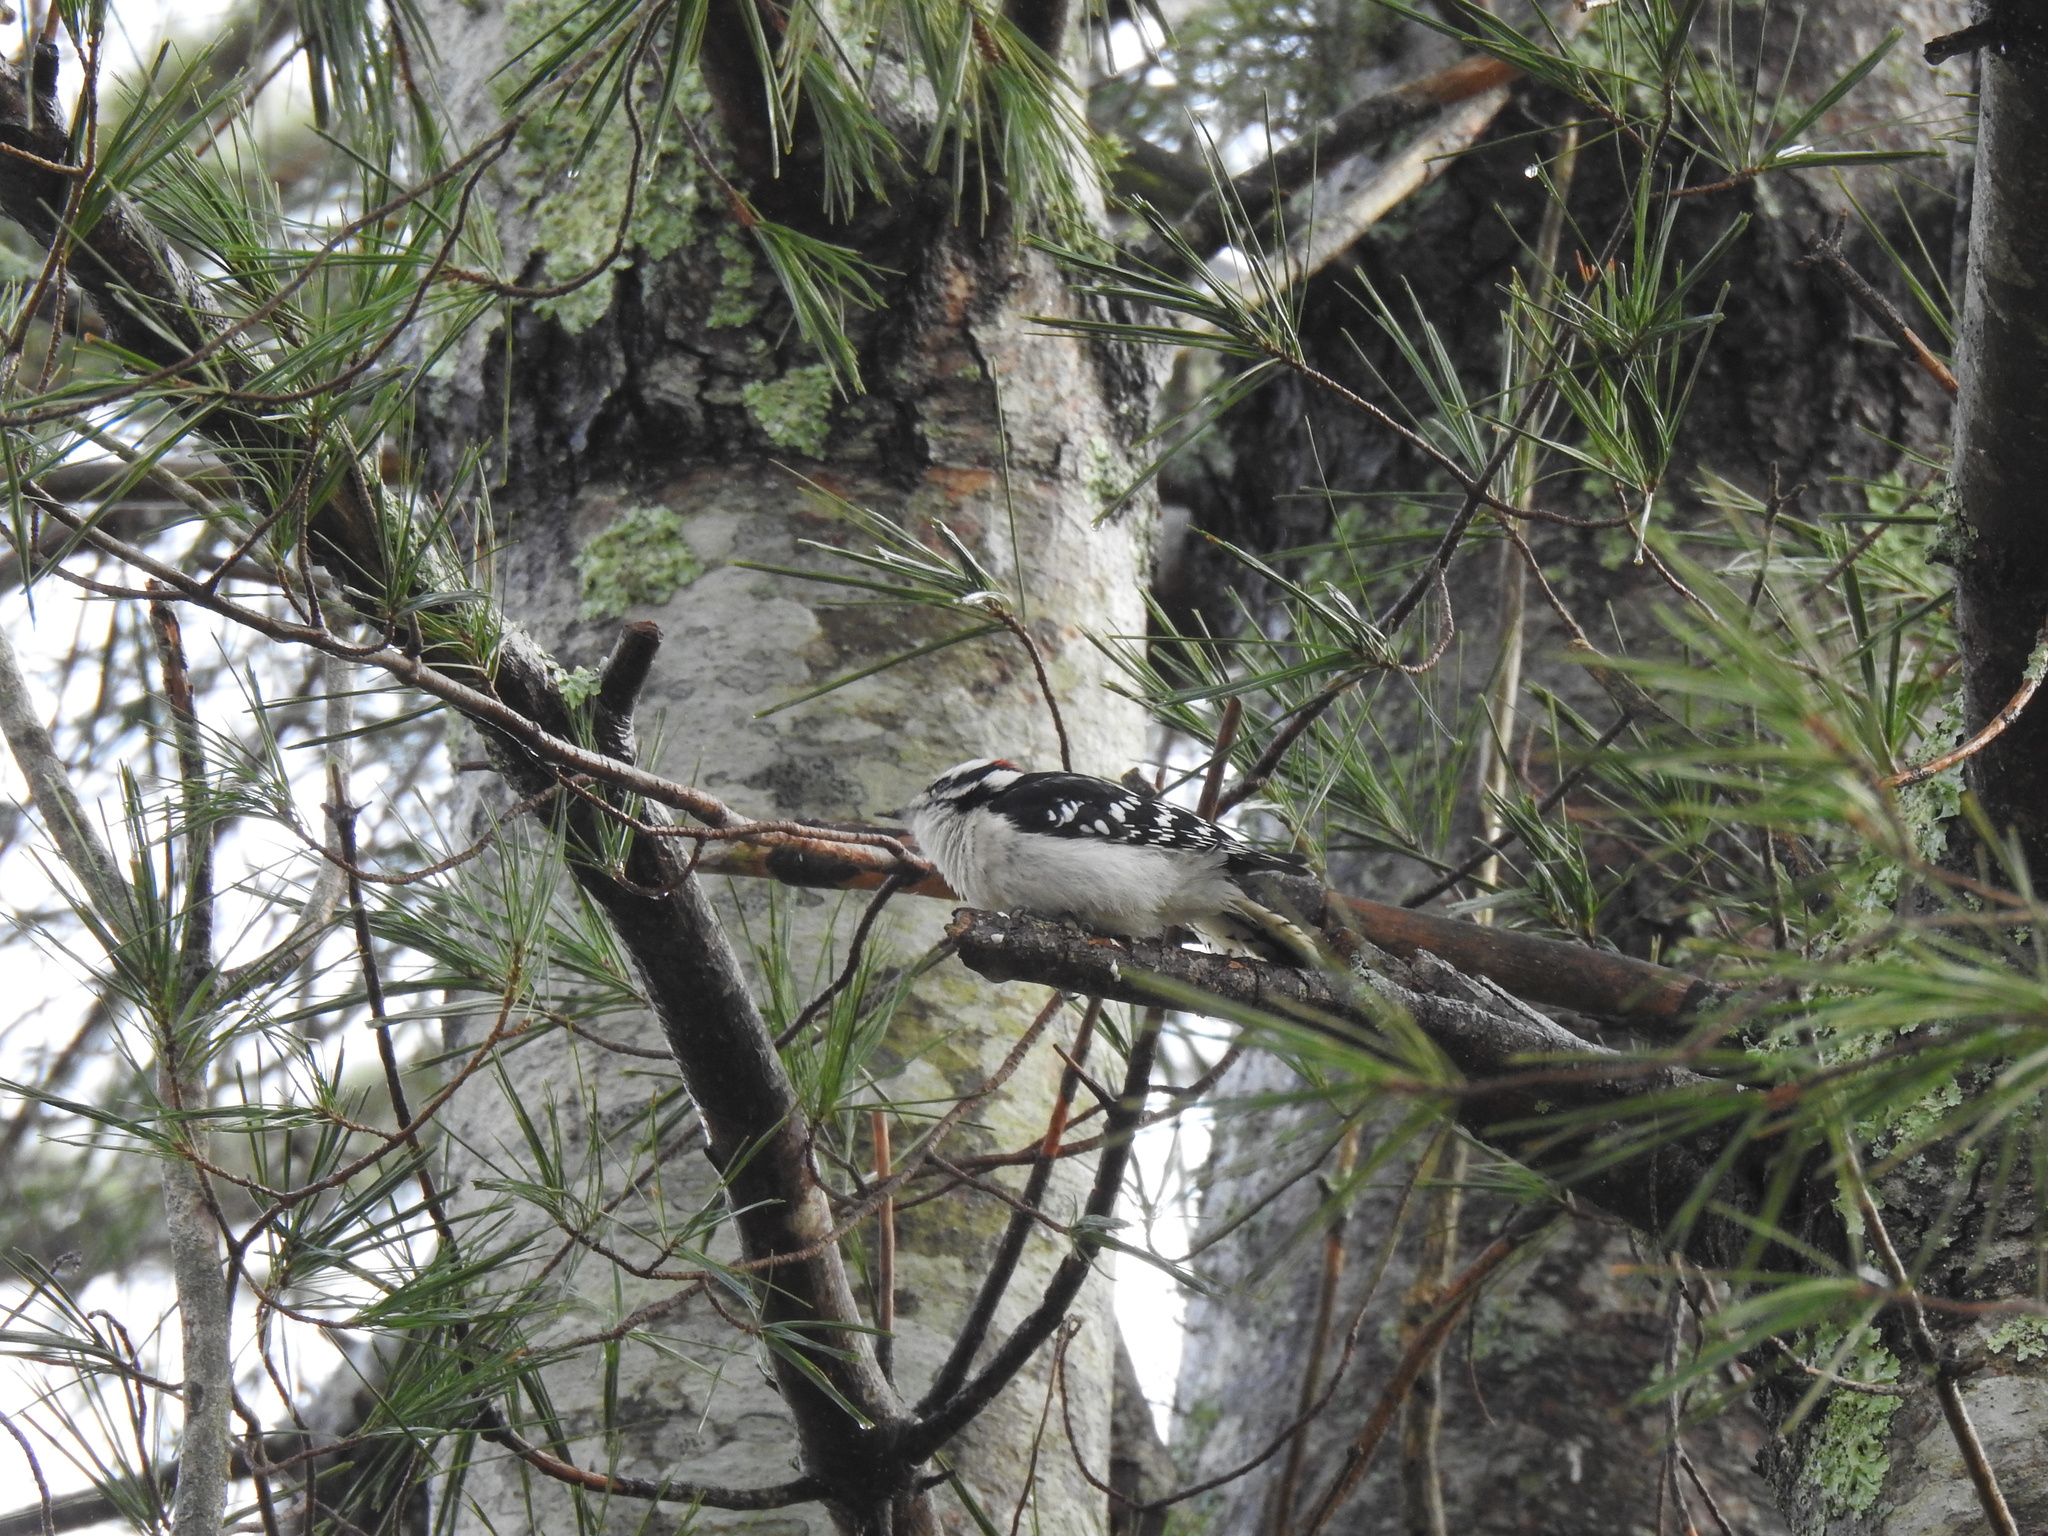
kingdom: Animalia
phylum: Chordata
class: Aves
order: Piciformes
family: Picidae
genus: Dryobates
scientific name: Dryobates pubescens
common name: Downy woodpecker
